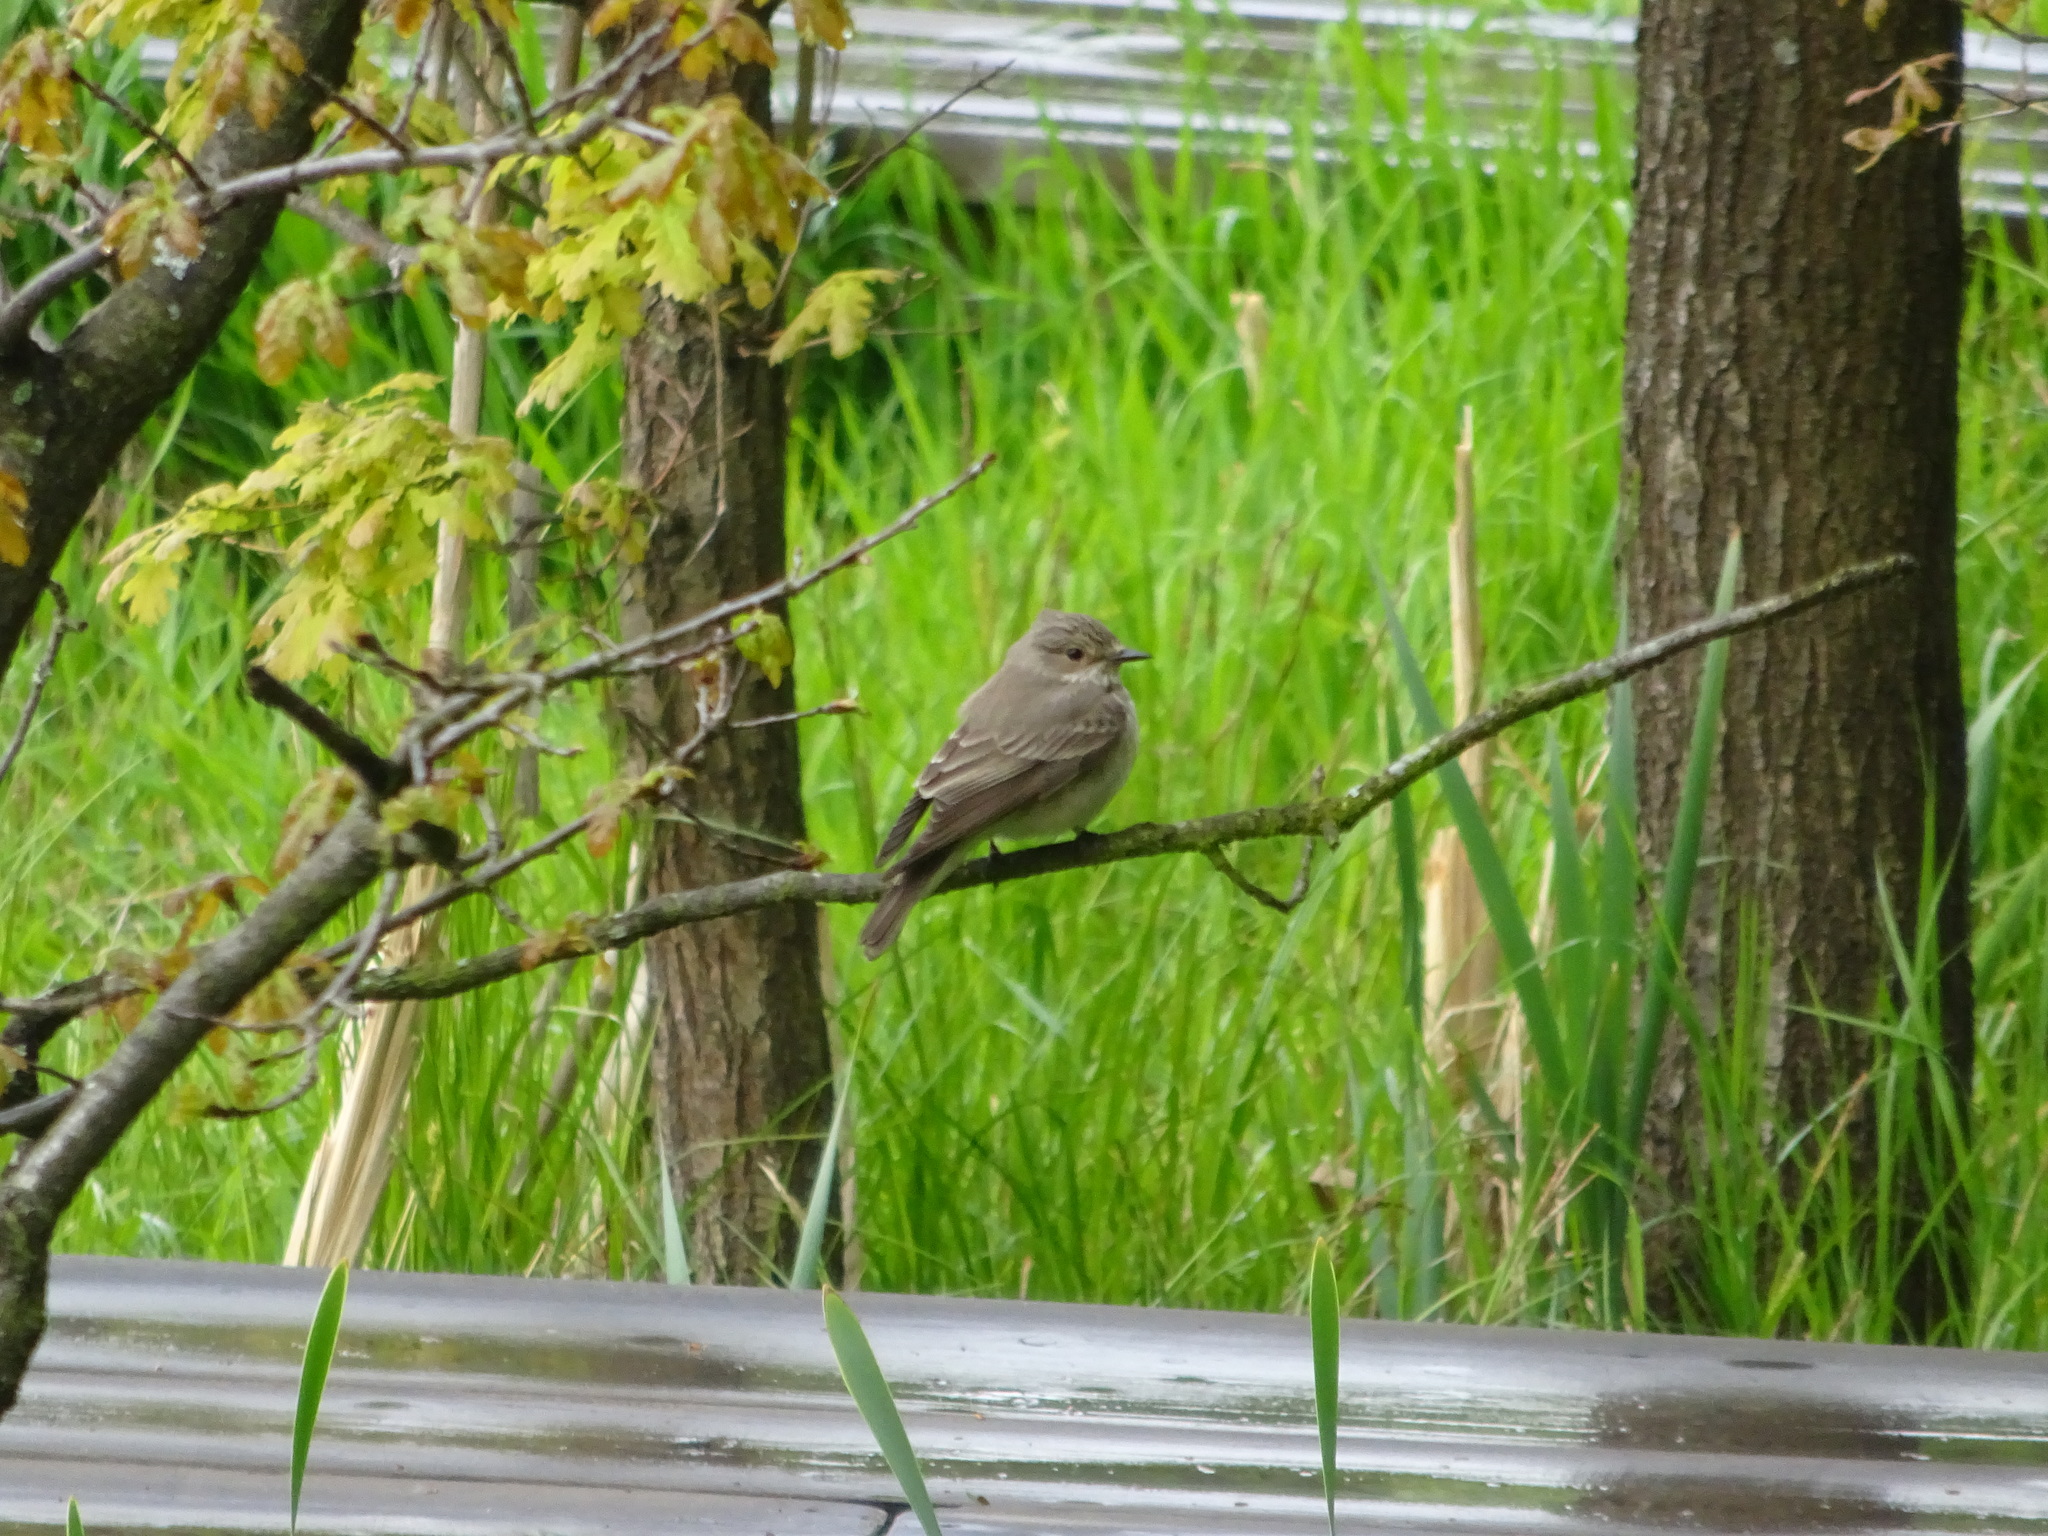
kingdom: Animalia
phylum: Chordata
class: Aves
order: Passeriformes
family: Muscicapidae
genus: Muscicapa
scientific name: Muscicapa striata
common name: Spotted flycatcher
